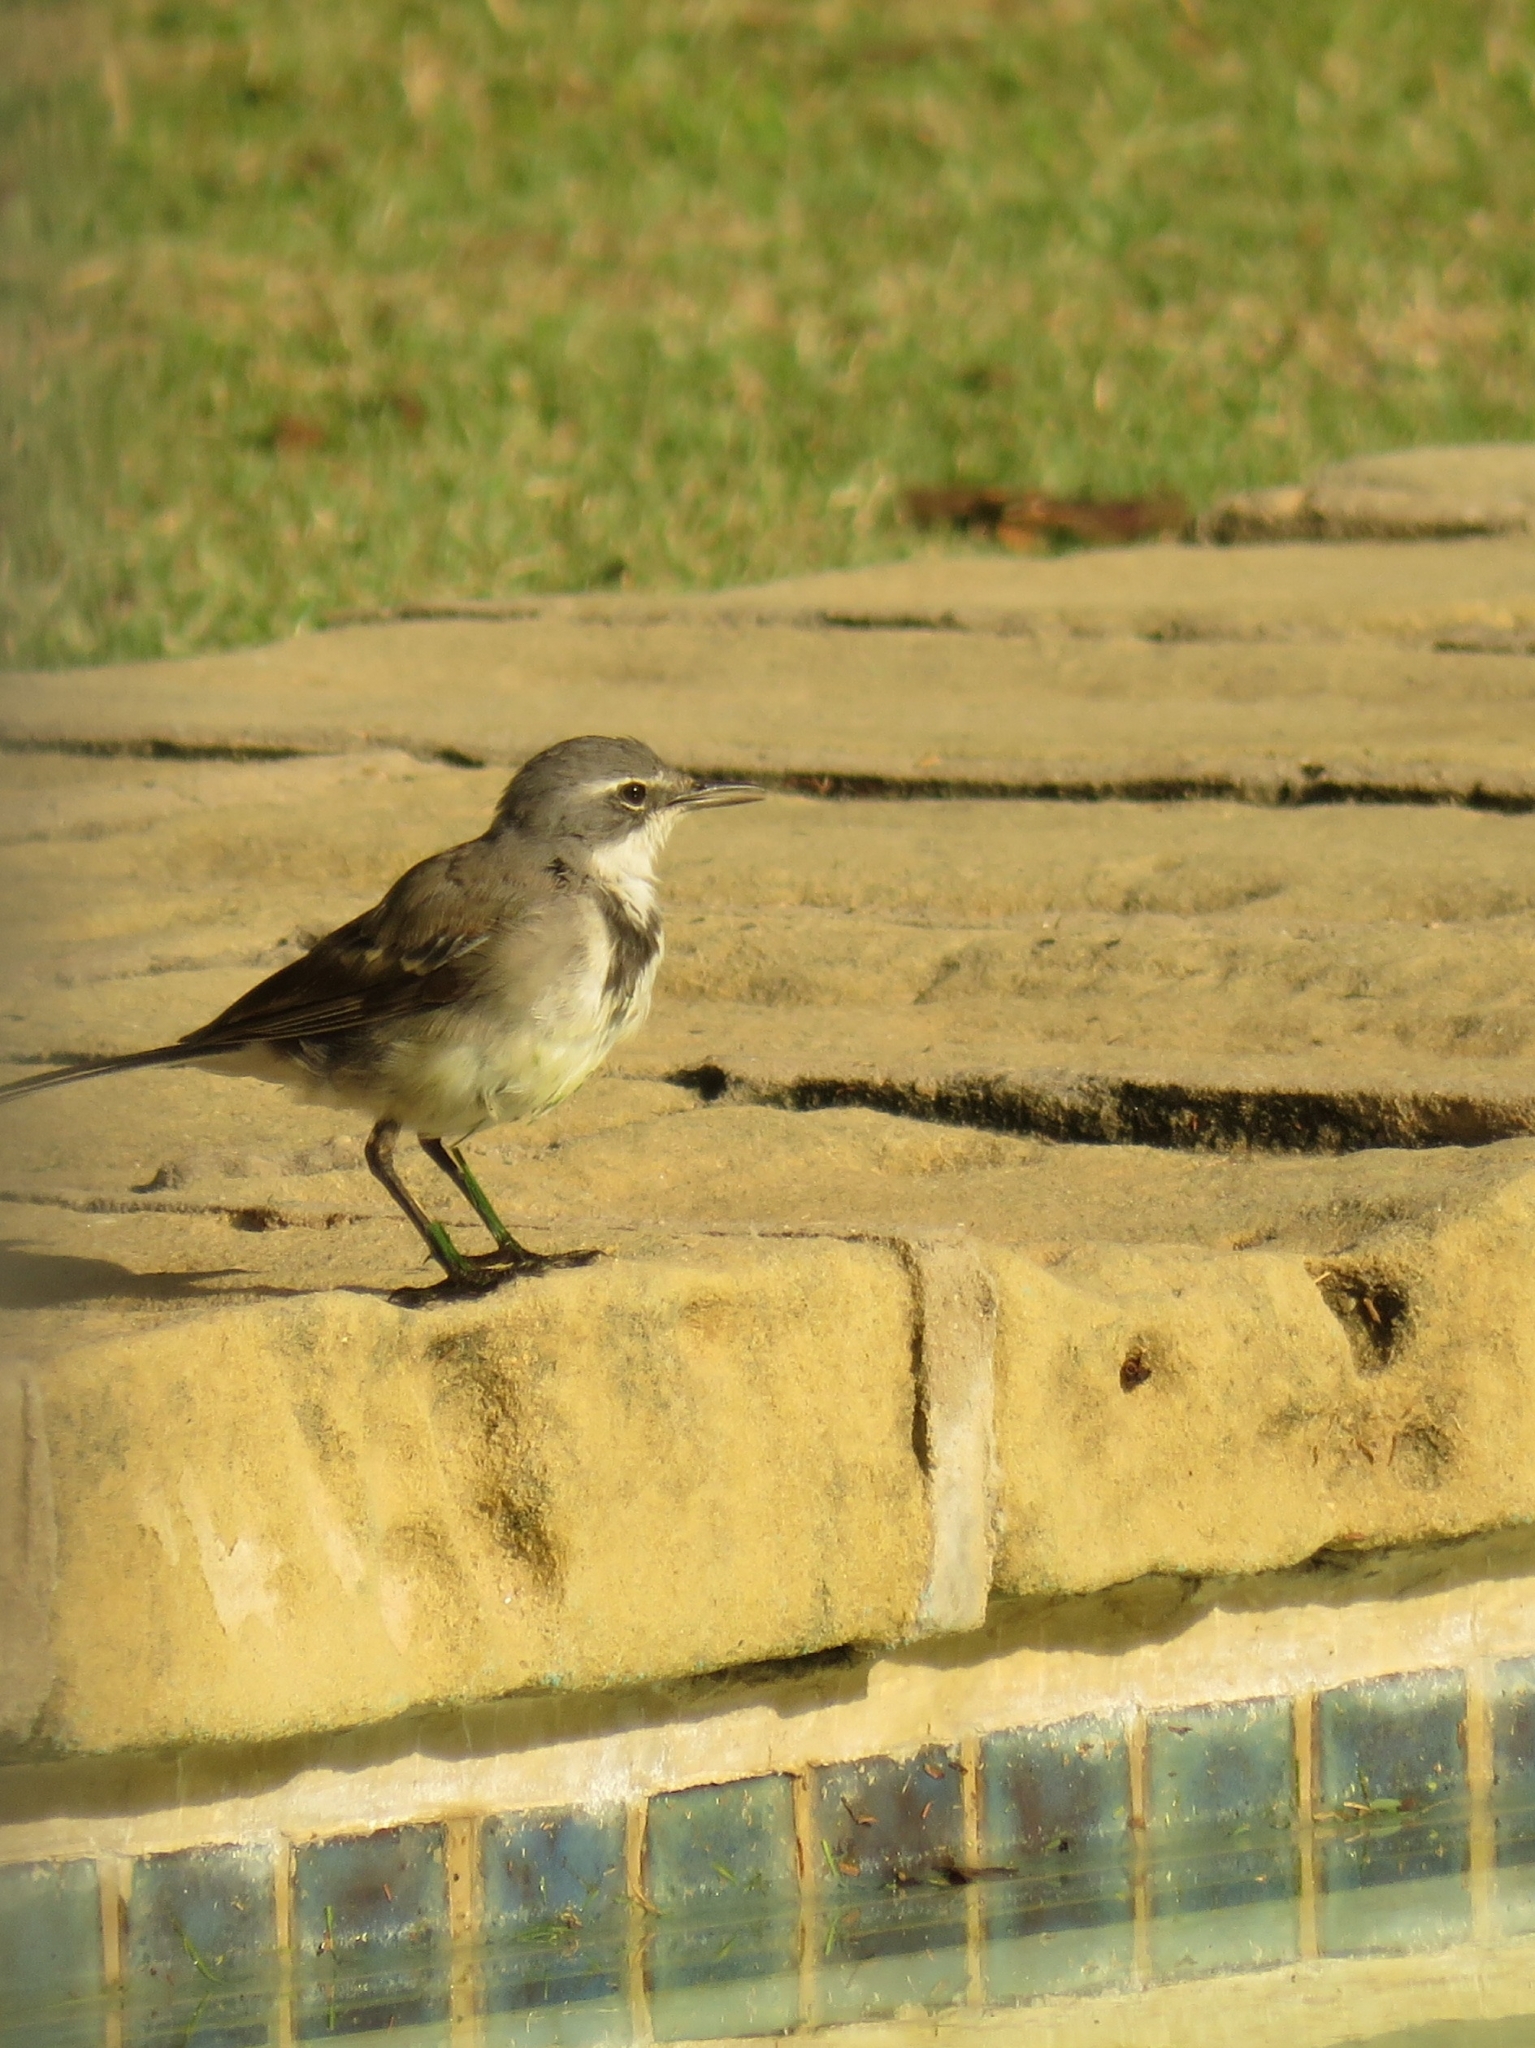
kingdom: Animalia
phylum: Chordata
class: Aves
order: Passeriformes
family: Motacillidae
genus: Motacilla
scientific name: Motacilla capensis
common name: Cape wagtail
